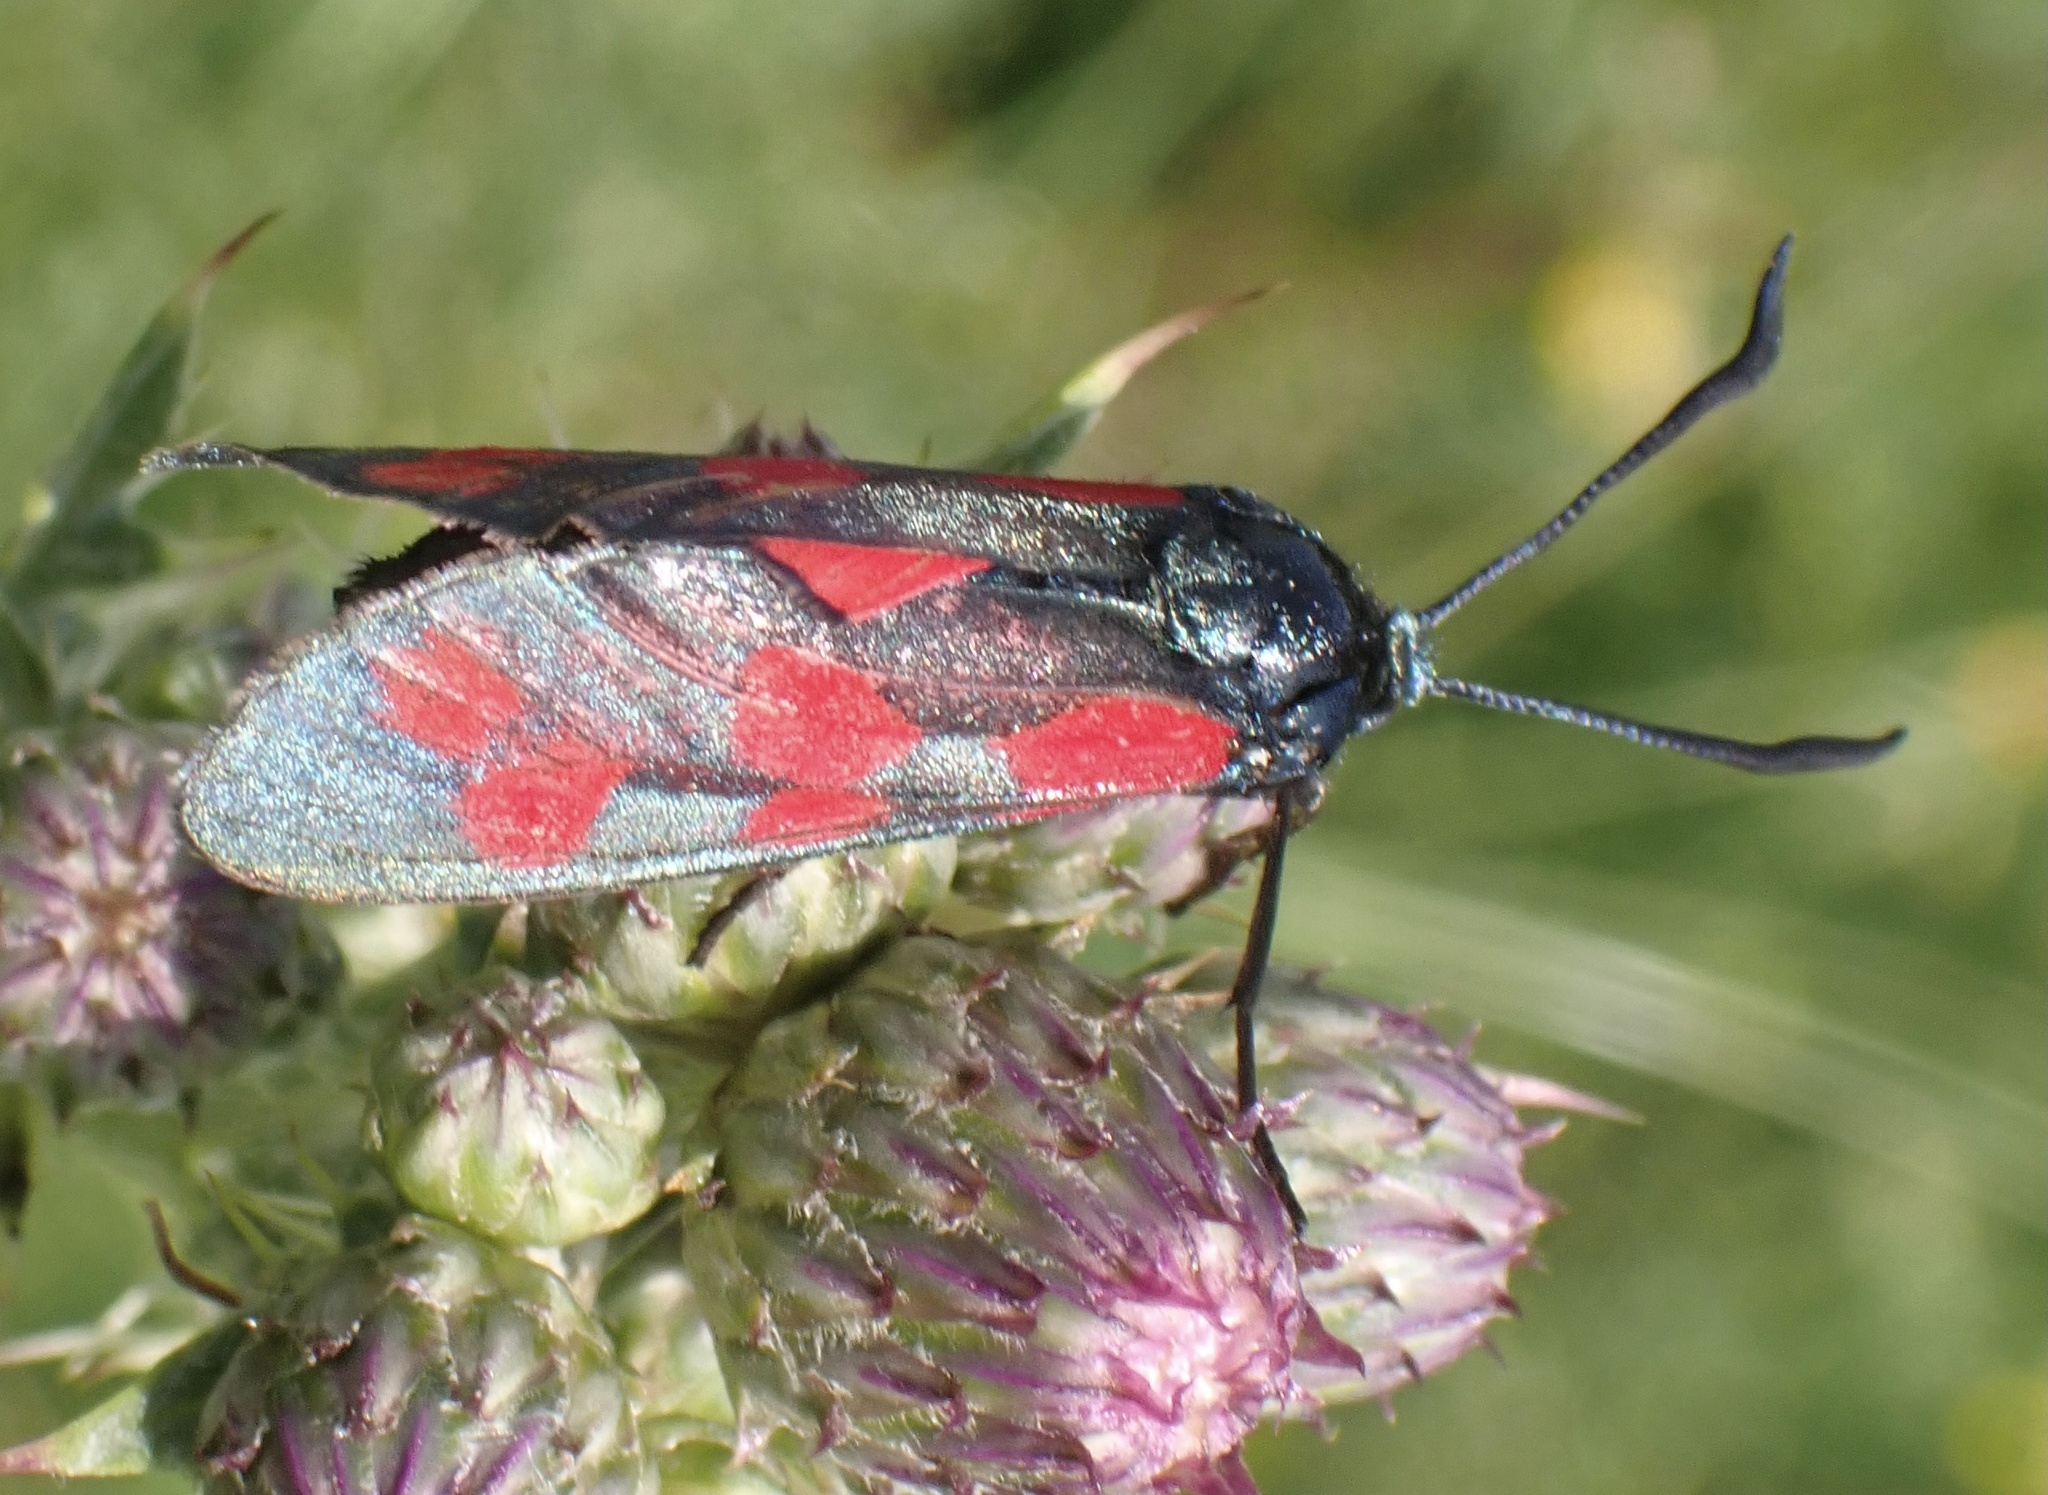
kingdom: Animalia
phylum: Arthropoda
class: Insecta
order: Lepidoptera
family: Zygaenidae
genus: Zygaena
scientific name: Zygaena filipendulae
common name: Six-spot burnet
